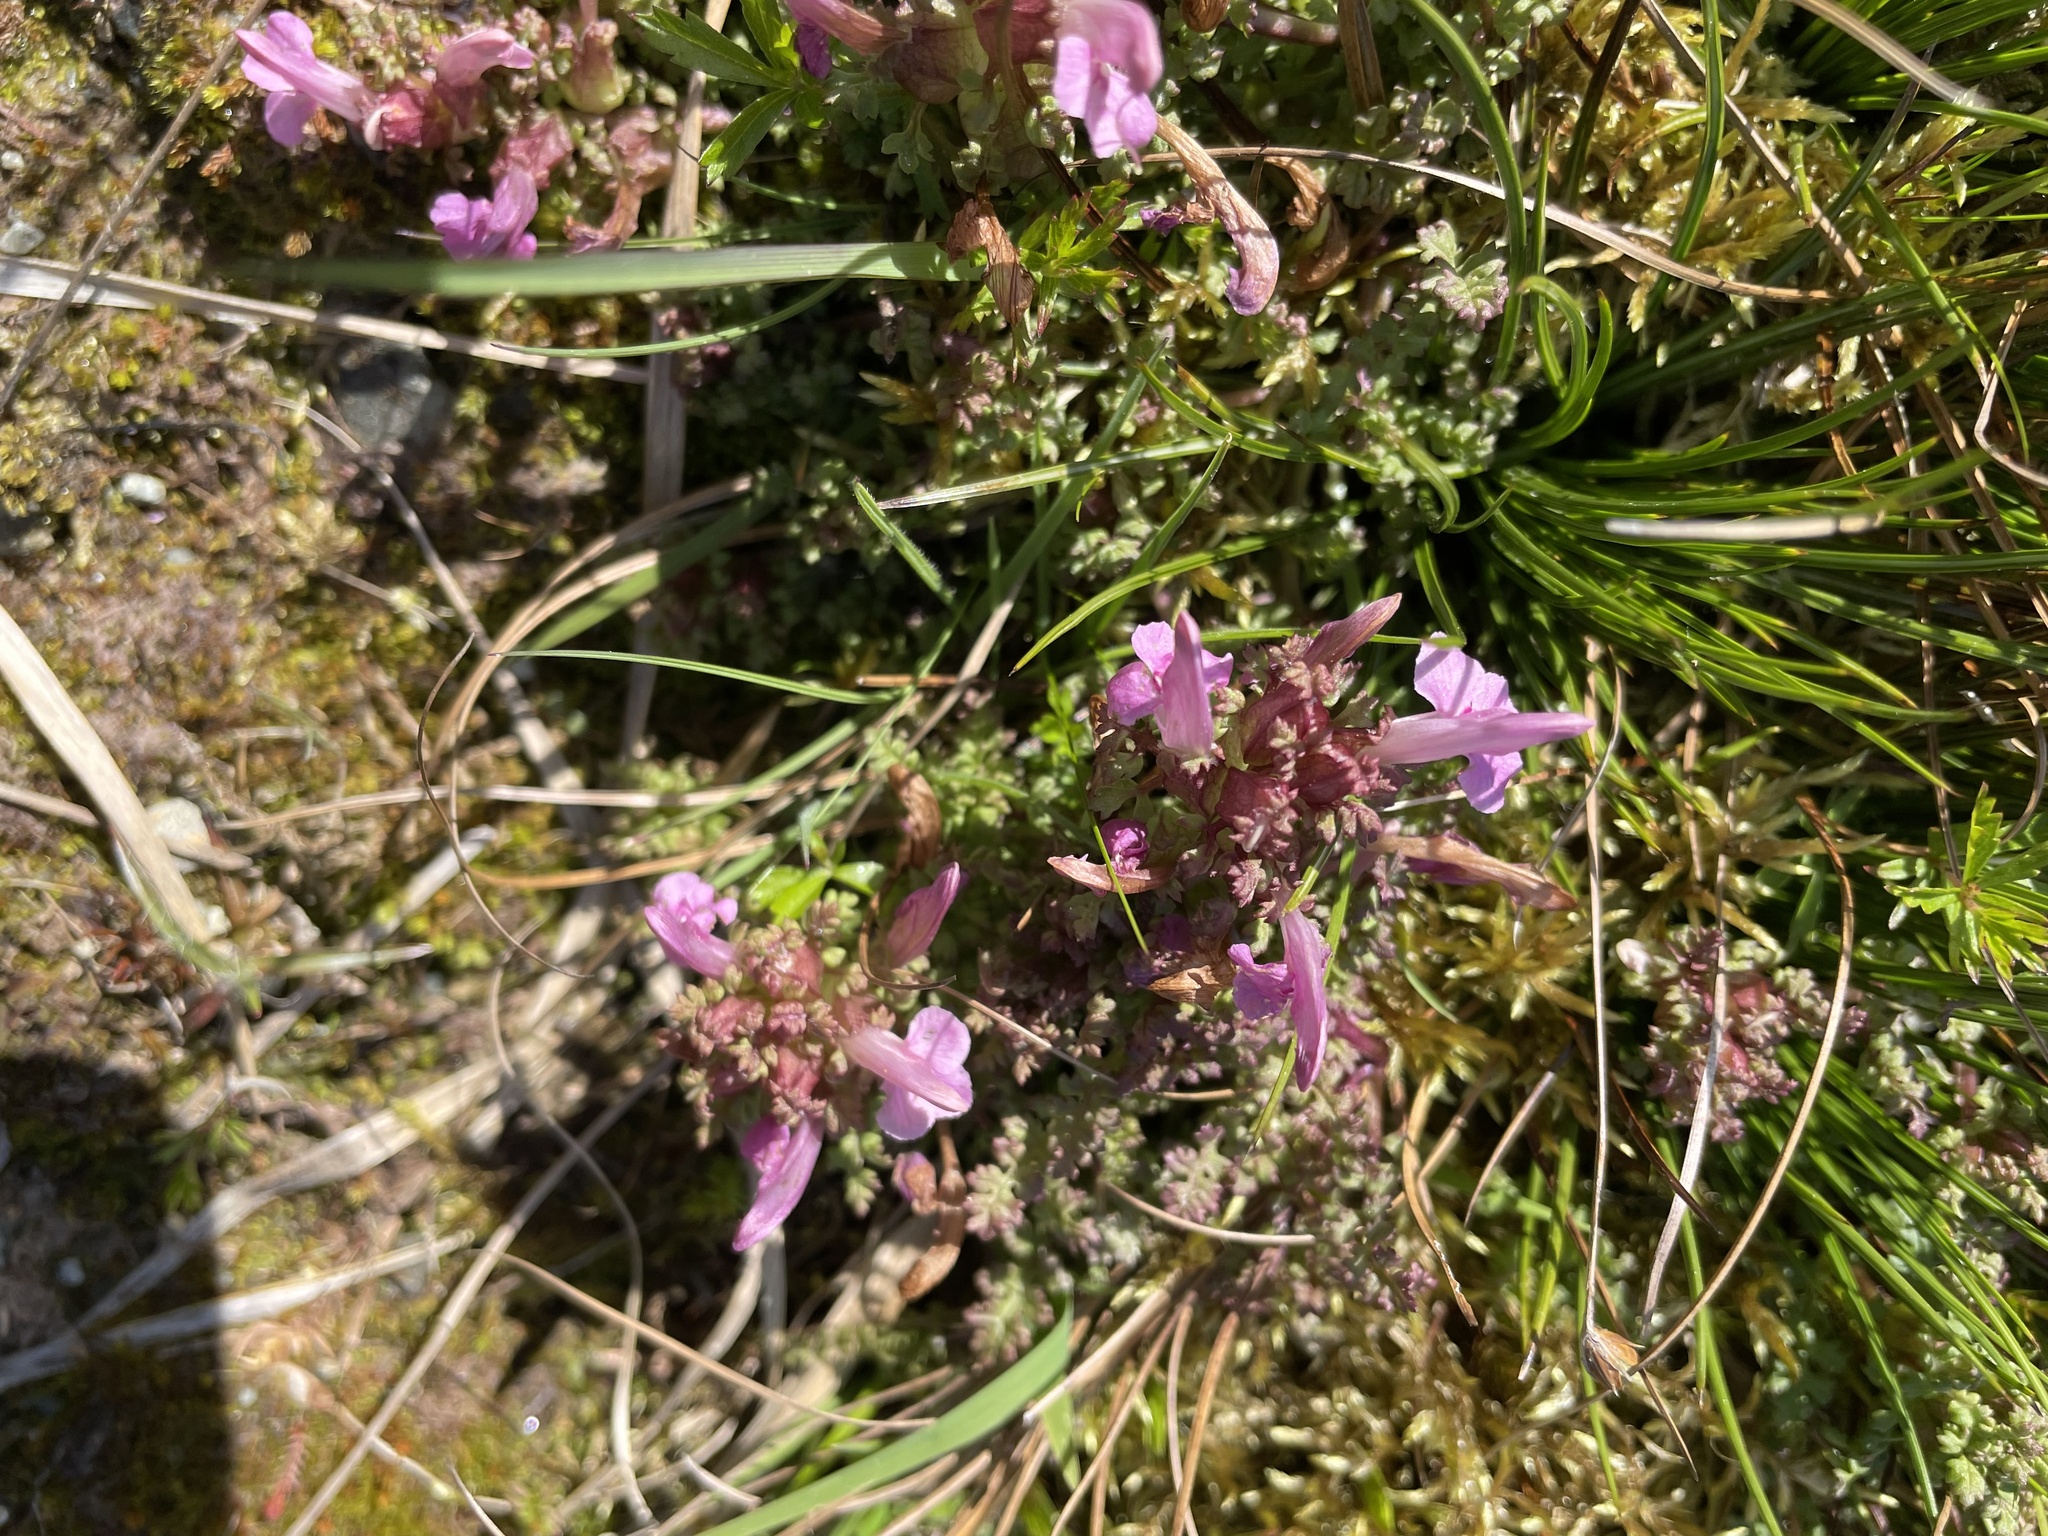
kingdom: Plantae
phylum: Tracheophyta
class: Magnoliopsida
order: Lamiales
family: Orobanchaceae
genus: Pedicularis
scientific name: Pedicularis sylvatica
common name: Lousewort
